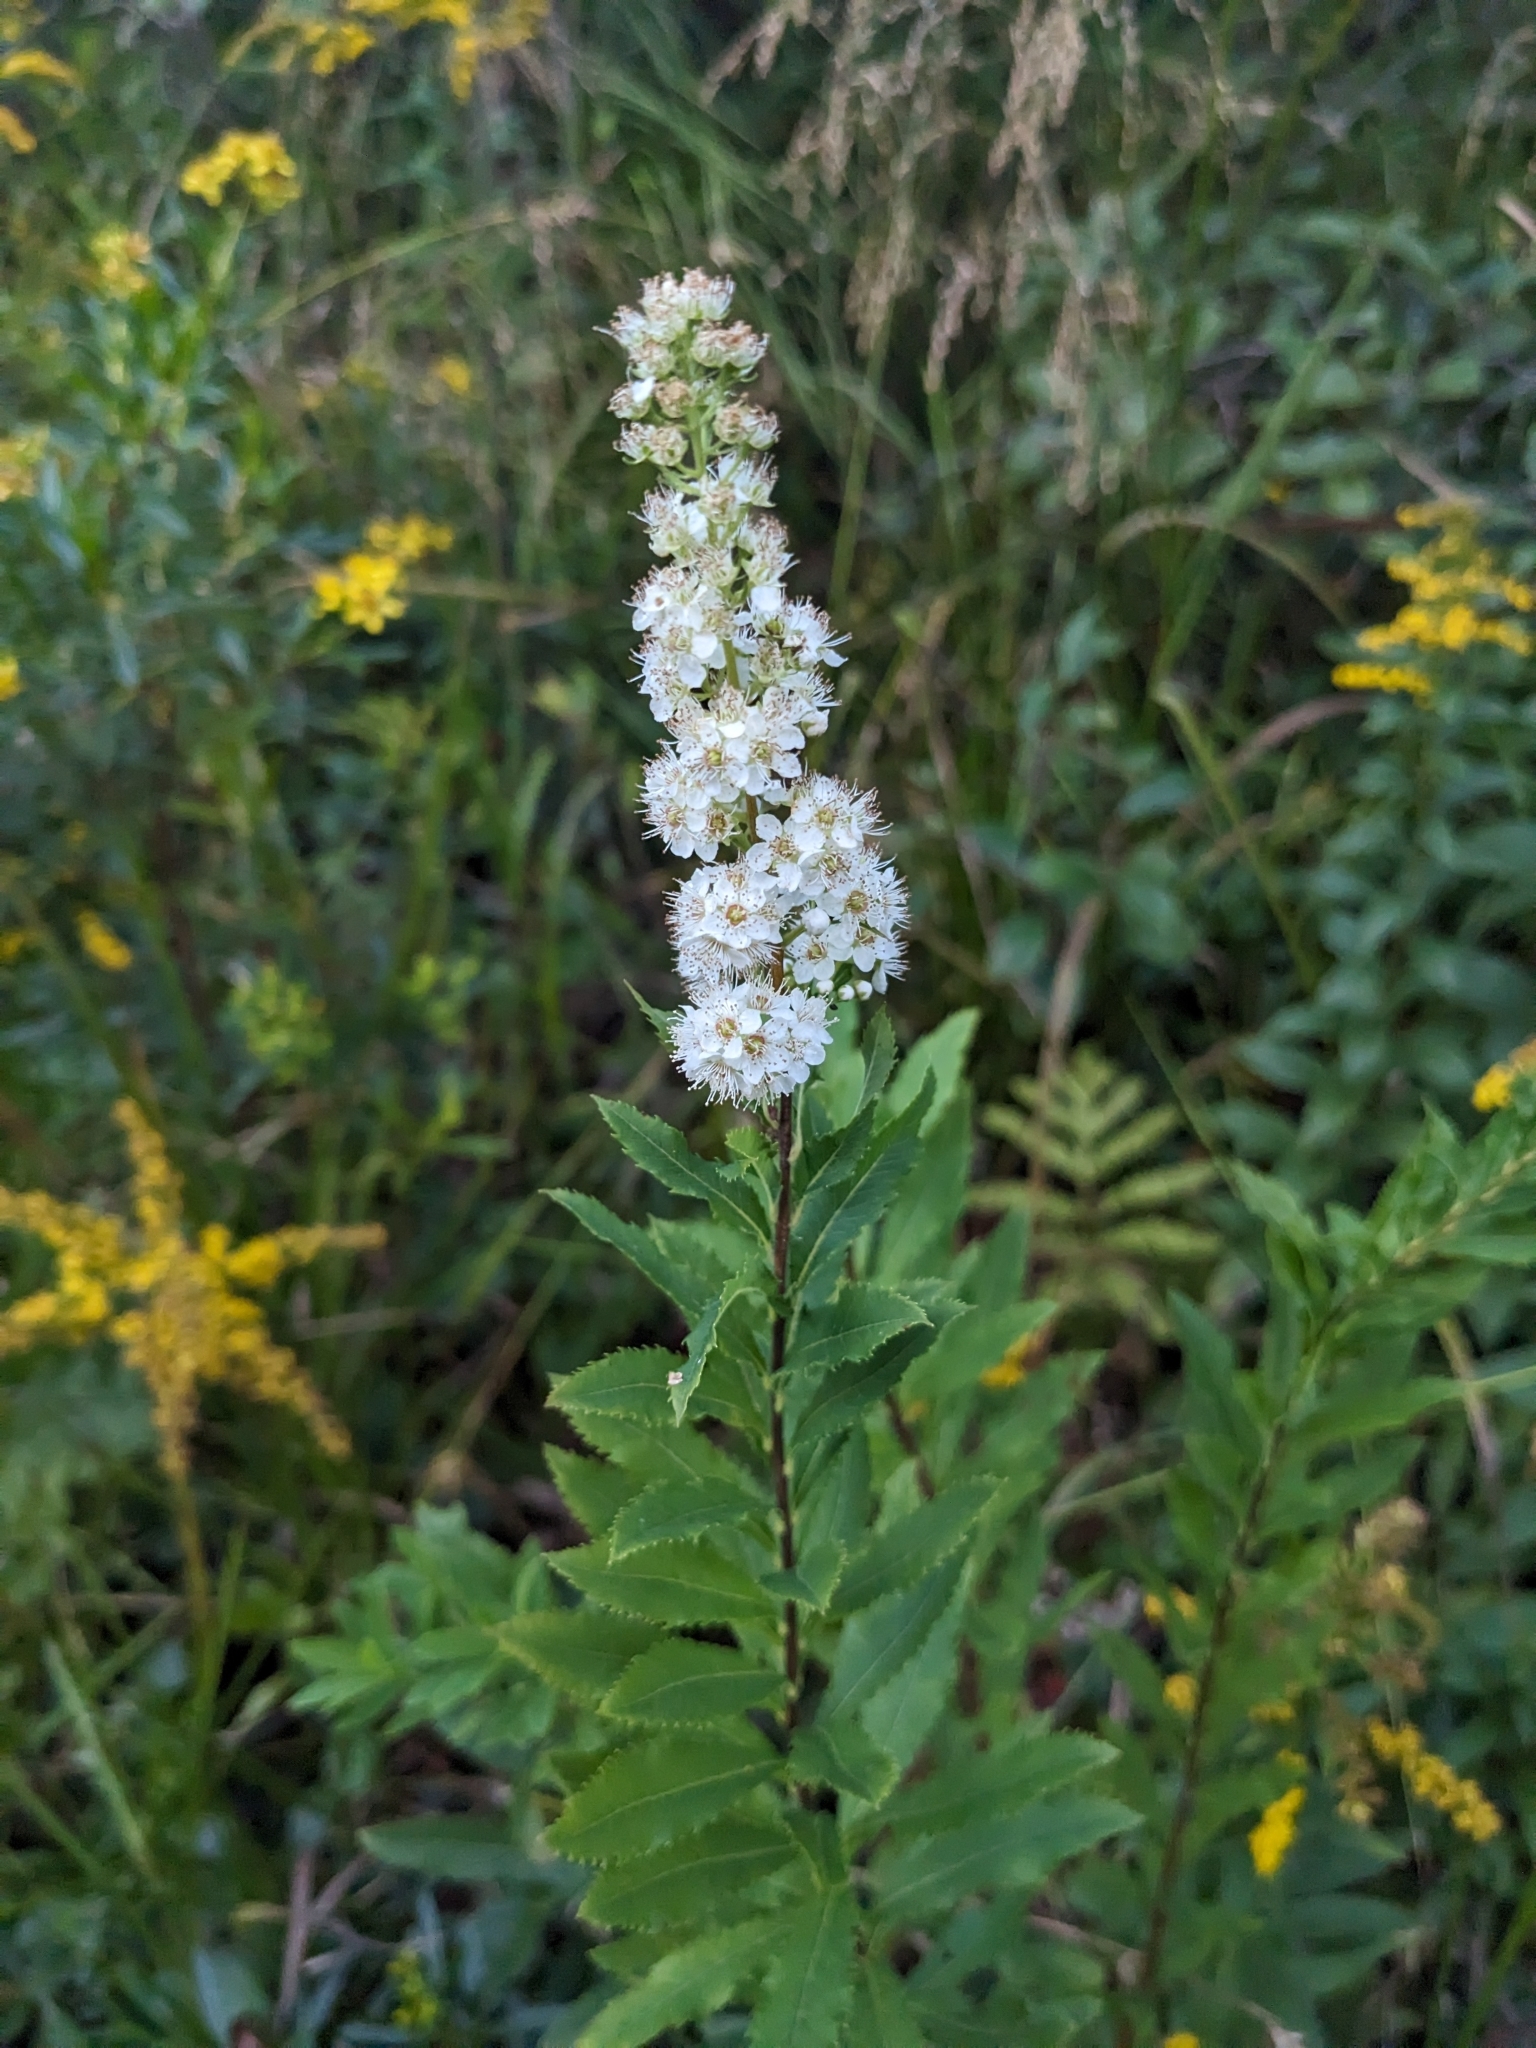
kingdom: Plantae
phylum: Tracheophyta
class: Magnoliopsida
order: Rosales
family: Rosaceae
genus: Spiraea
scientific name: Spiraea alba
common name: Pale bridewort
